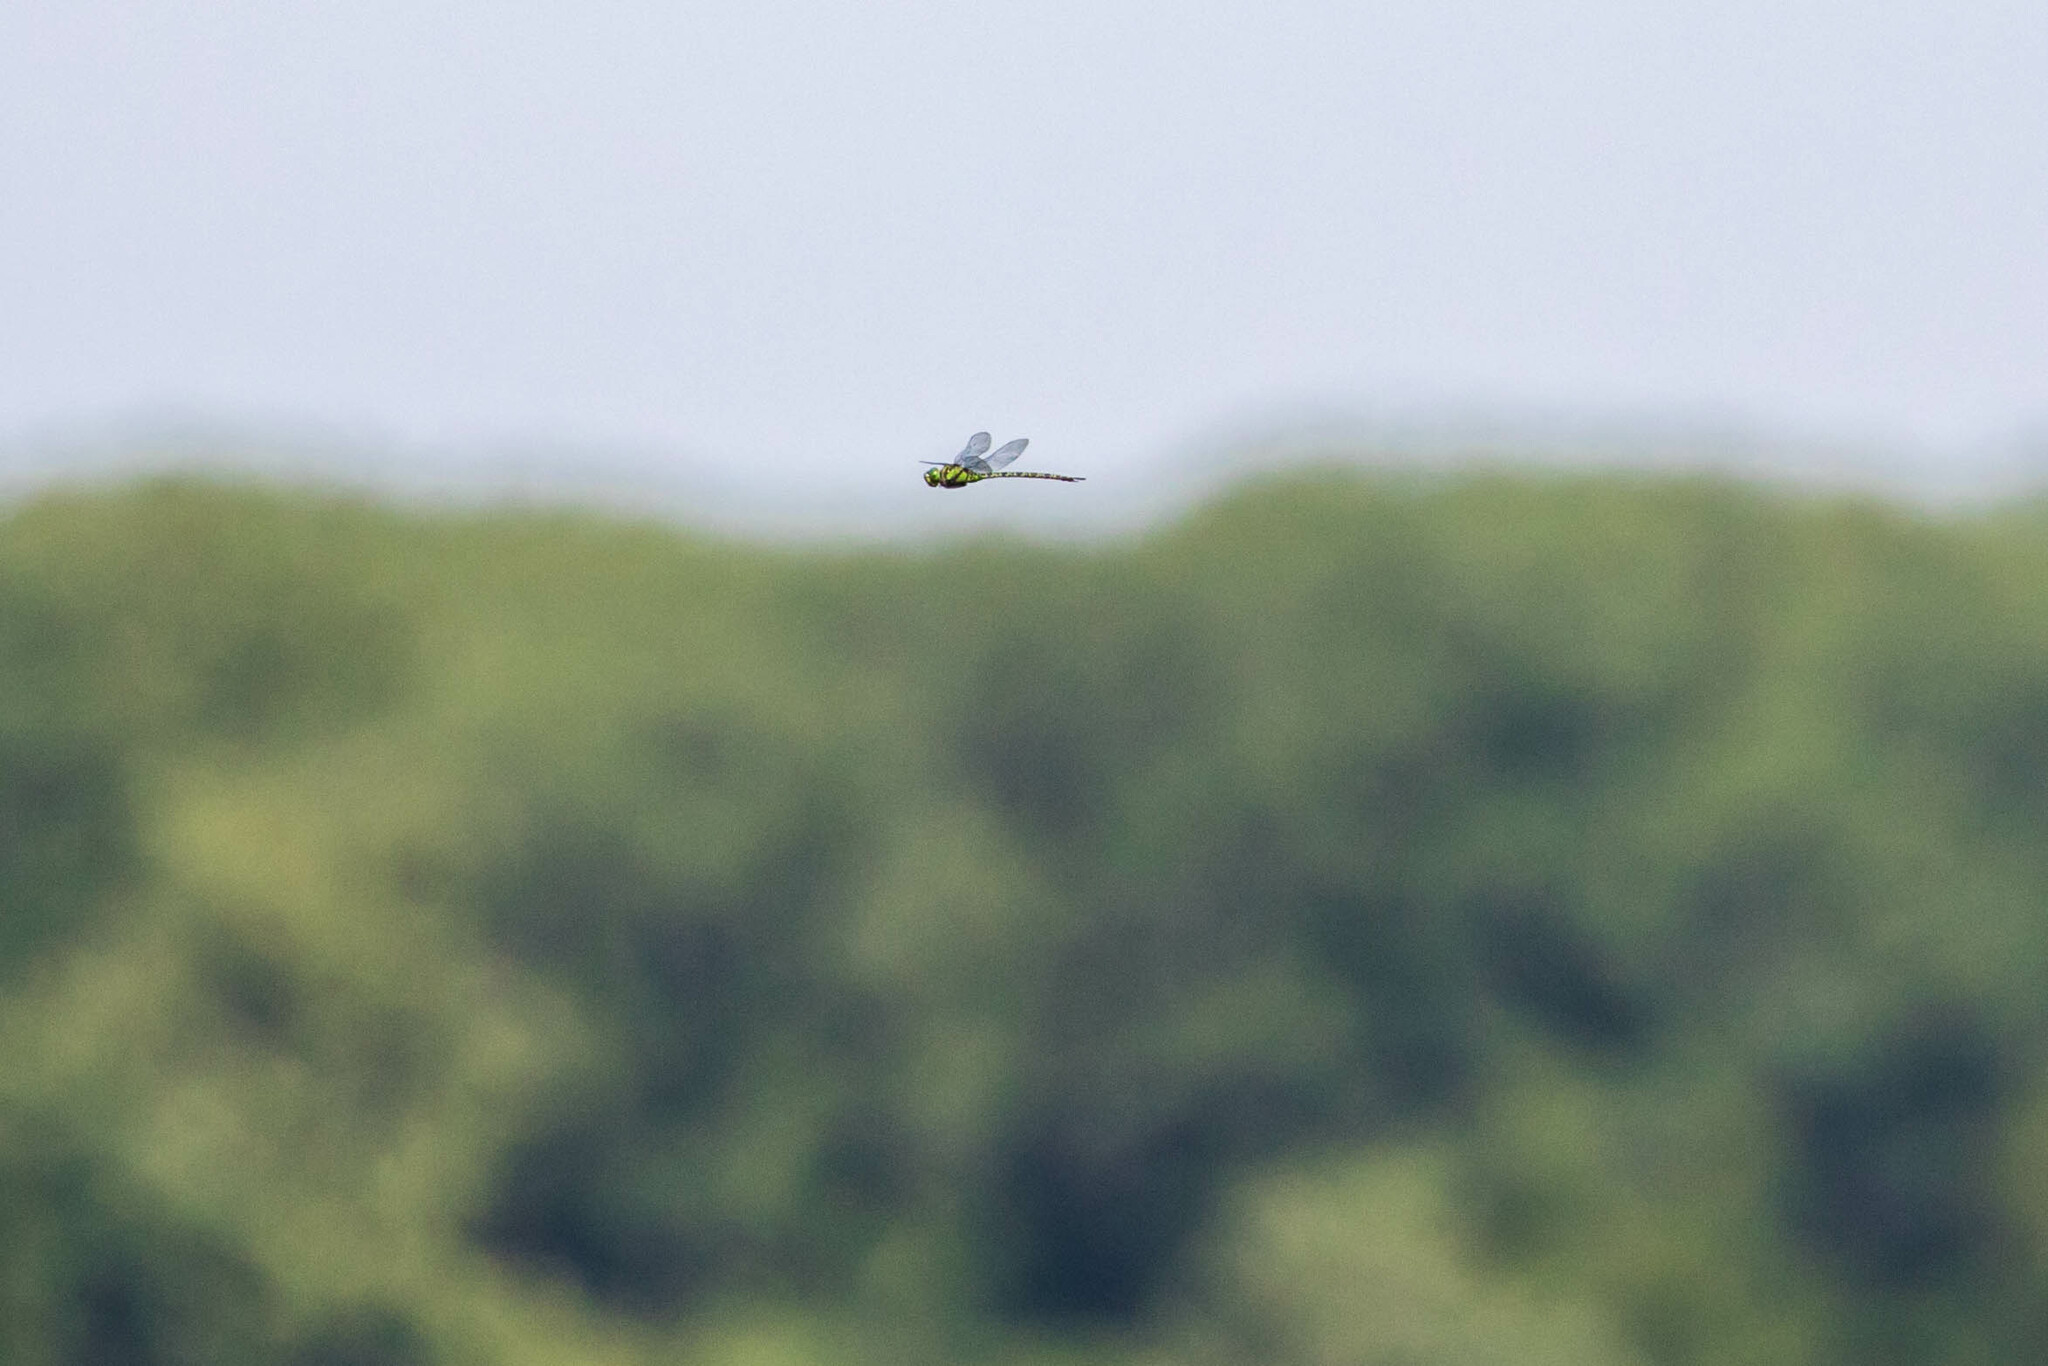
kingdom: Animalia
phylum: Arthropoda
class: Insecta
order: Odonata
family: Aeshnidae
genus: Coryphaeschna
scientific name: Coryphaeschna ingens
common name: Regal darner
